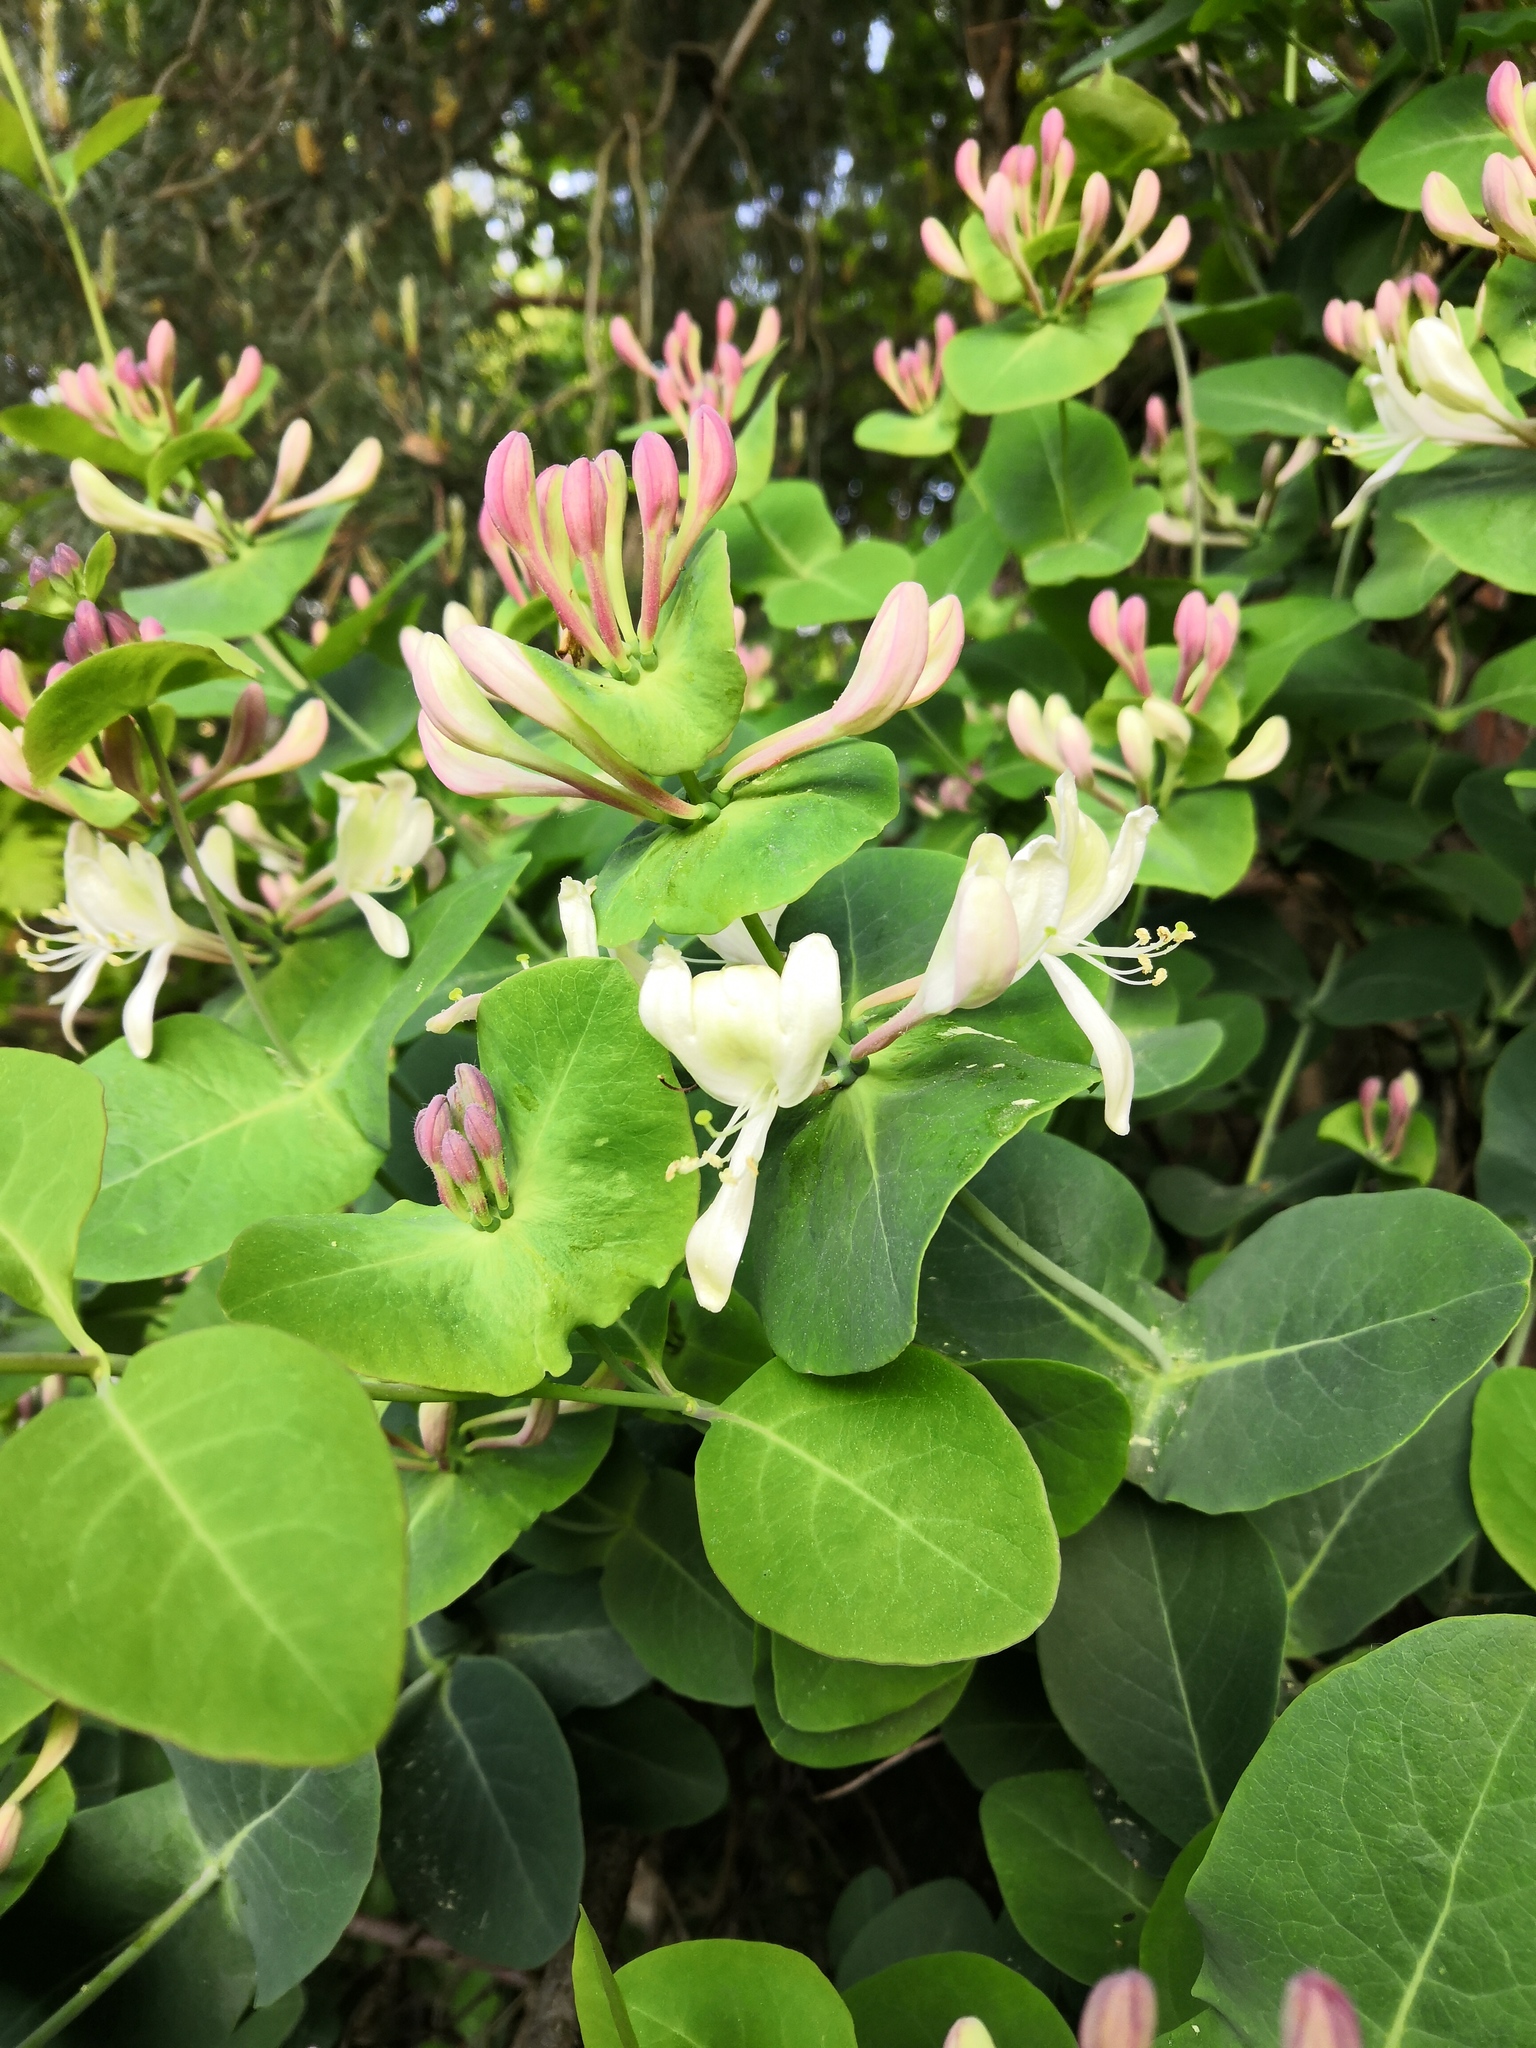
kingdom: Plantae
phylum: Tracheophyta
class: Magnoliopsida
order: Dipsacales
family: Caprifoliaceae
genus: Lonicera
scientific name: Lonicera caprifolium
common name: Perfoliate honeysuckle
